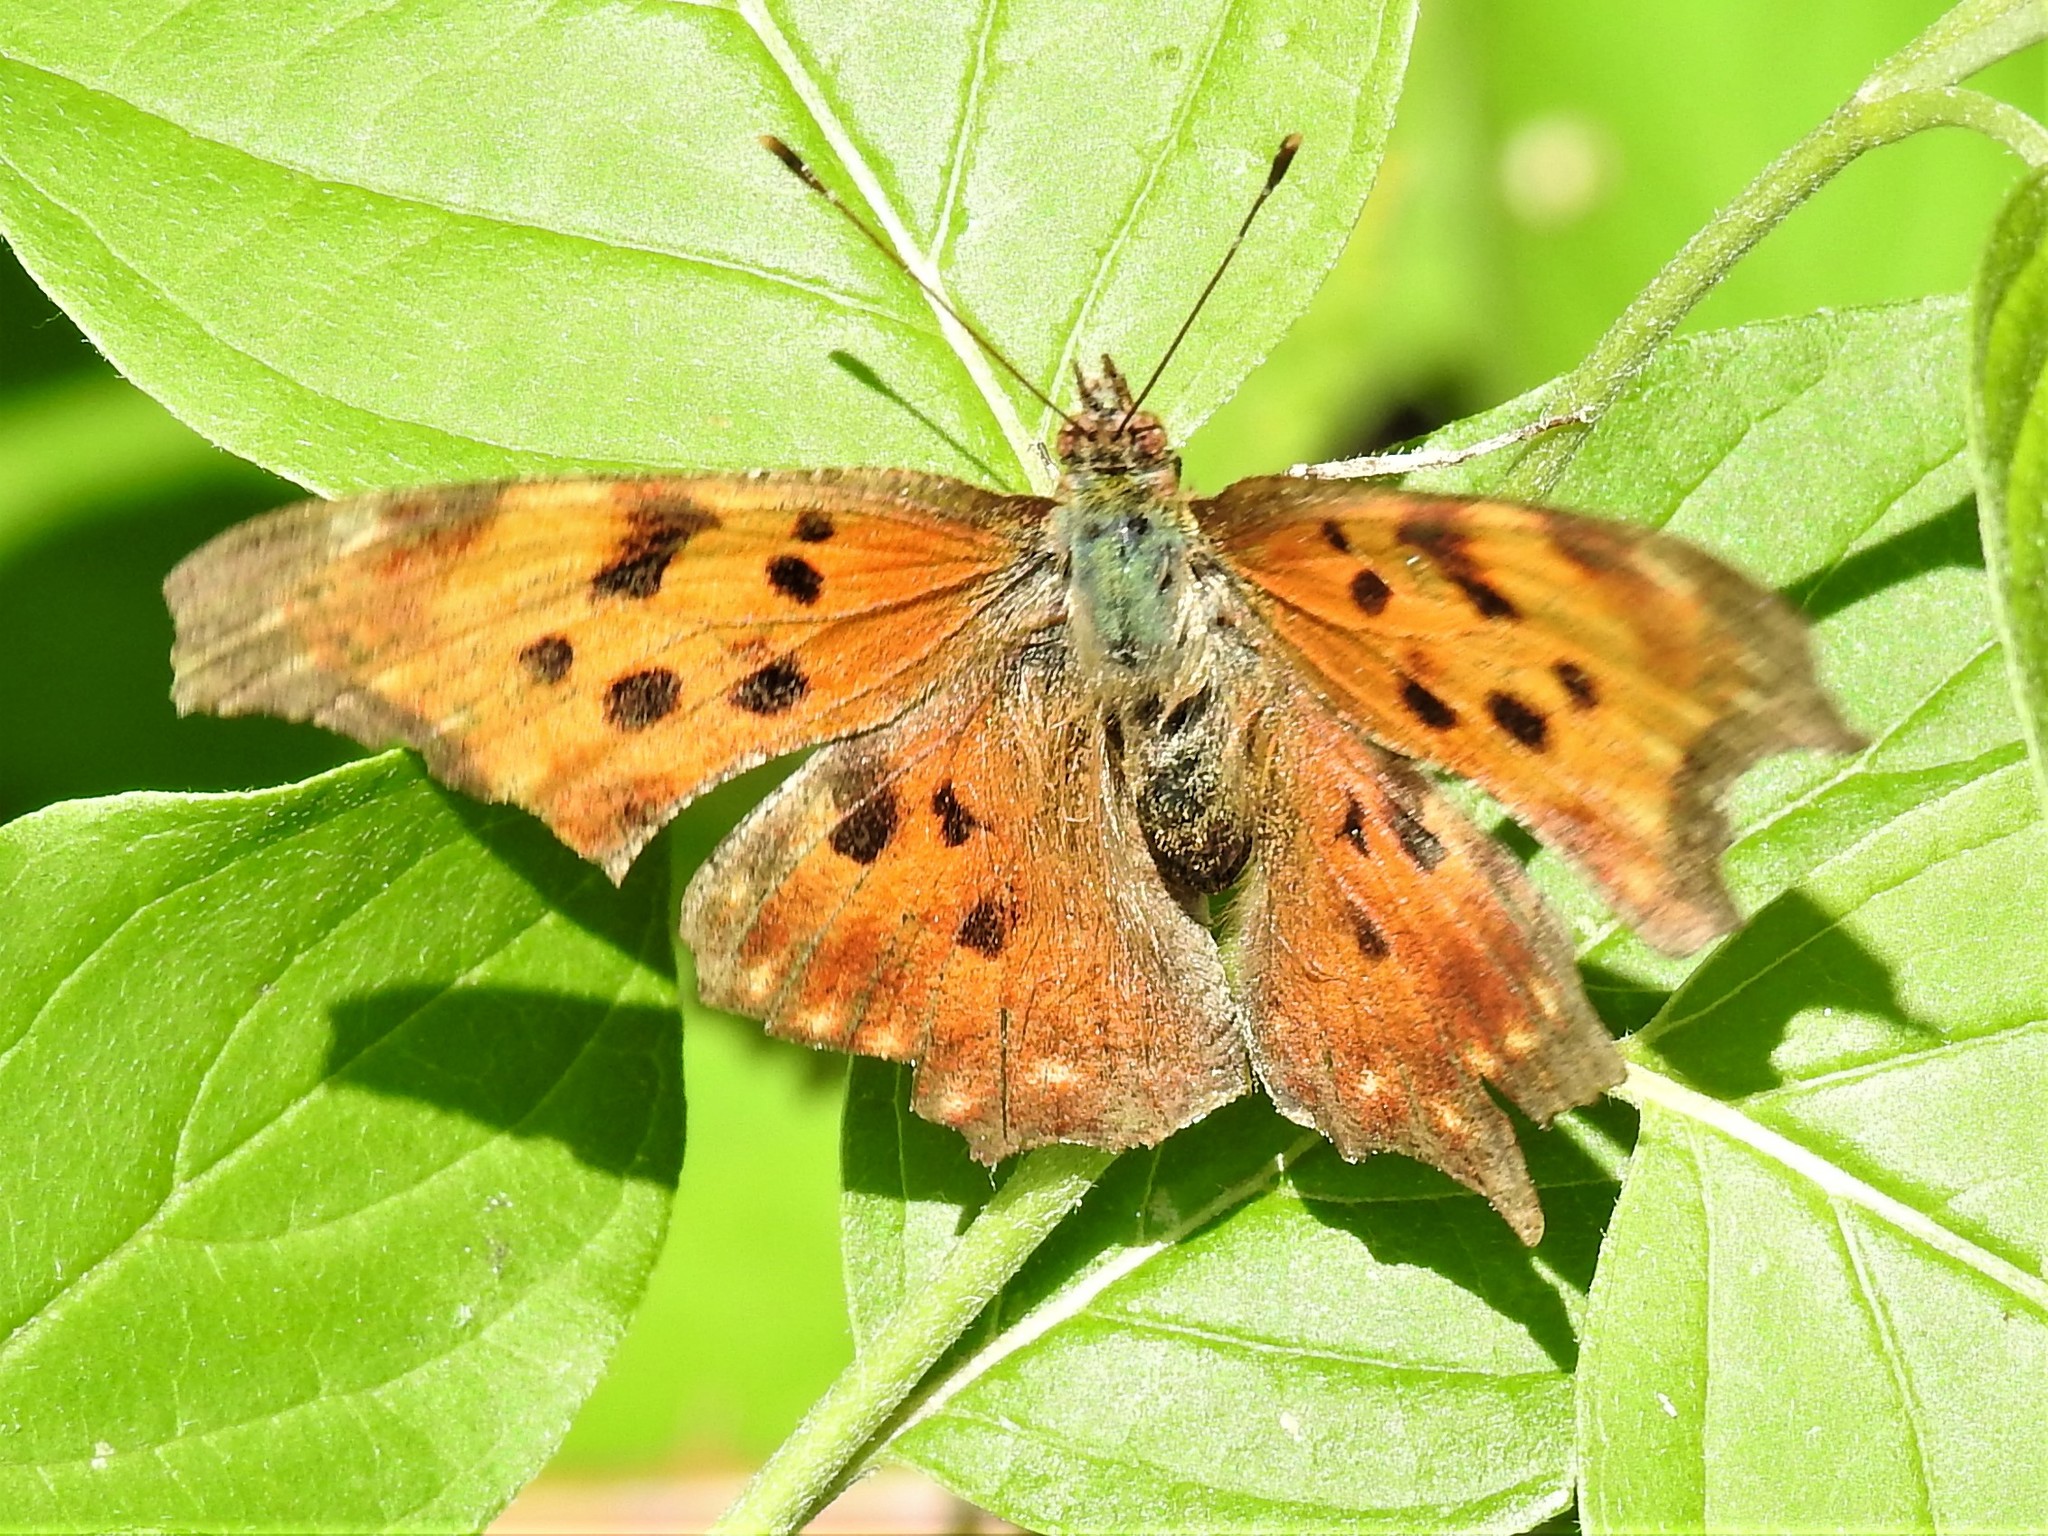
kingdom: Animalia
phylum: Arthropoda
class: Insecta
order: Lepidoptera
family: Nymphalidae
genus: Polygonia
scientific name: Polygonia comma
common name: Eastern comma
